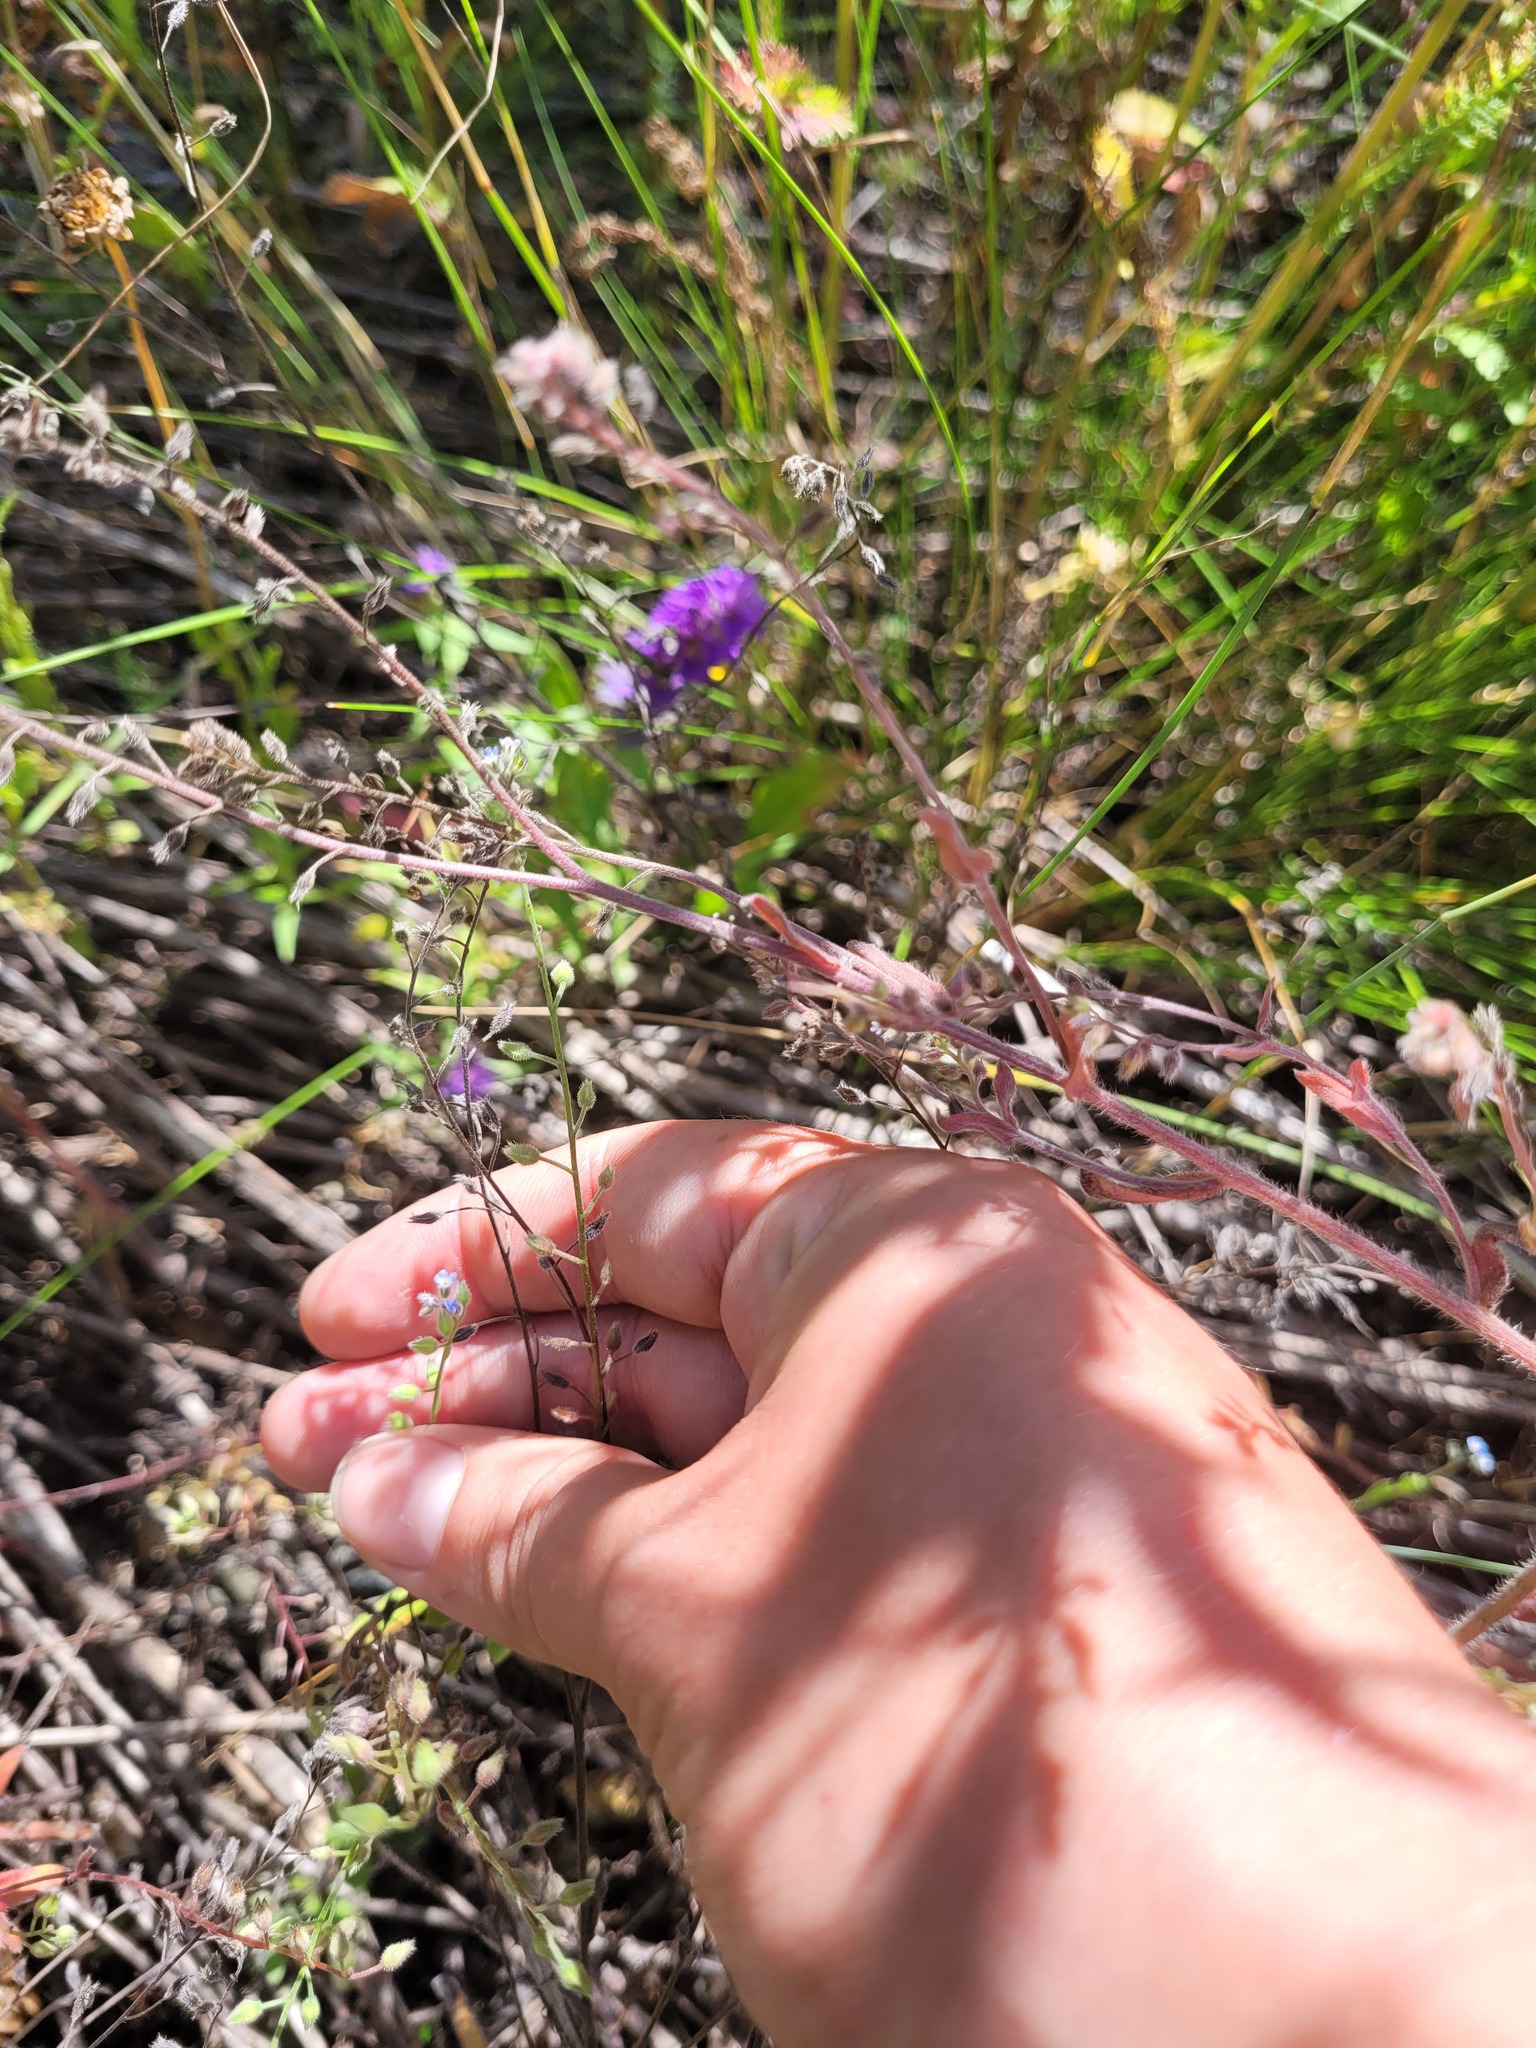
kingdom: Plantae
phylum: Tracheophyta
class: Magnoliopsida
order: Boraginales
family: Boraginaceae
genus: Myosotis
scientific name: Myosotis arvensis
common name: Field forget-me-not
